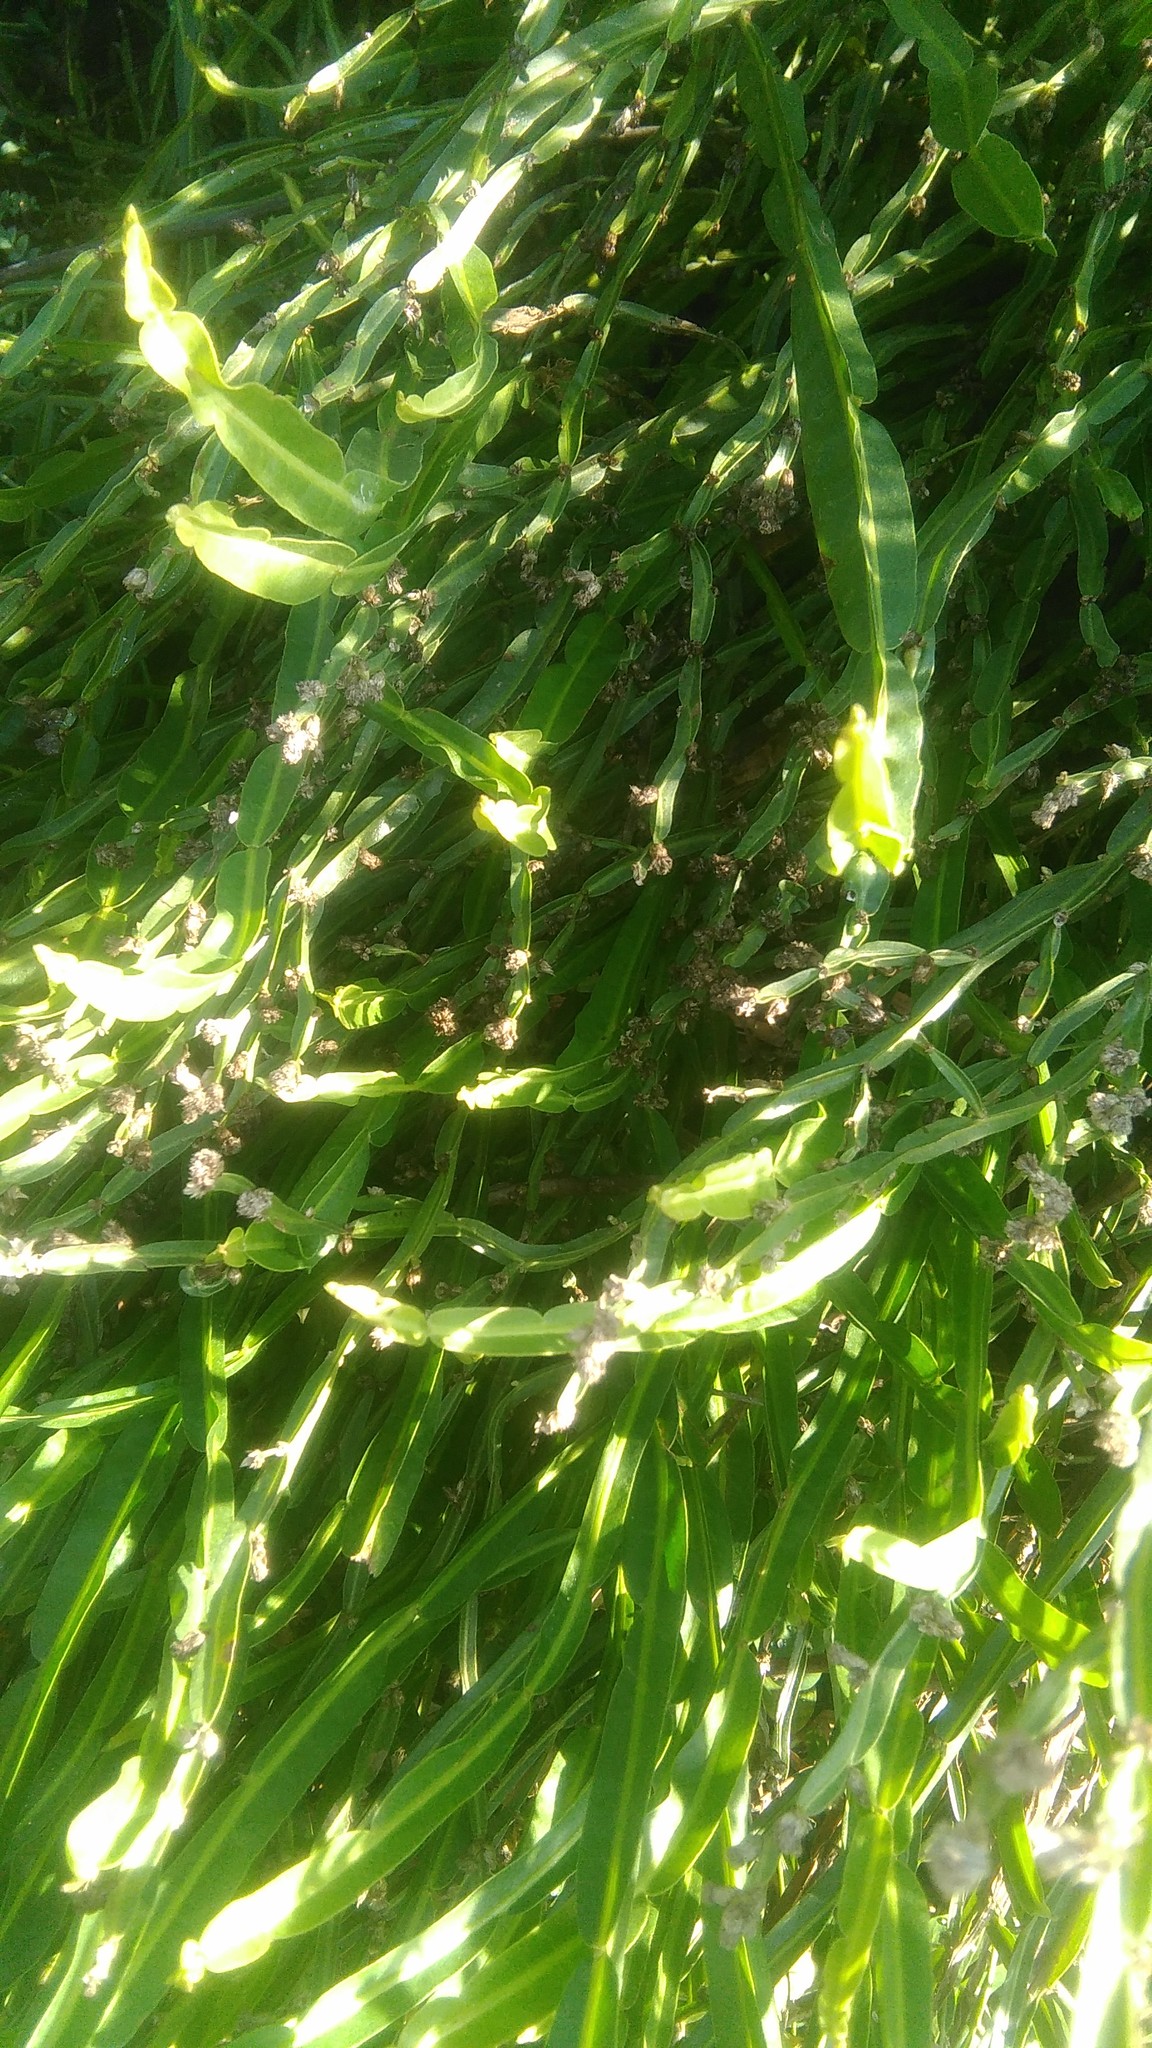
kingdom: Plantae
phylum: Tracheophyta
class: Magnoliopsida
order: Asterales
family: Asteraceae
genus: Baccharis
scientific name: Baccharis trimera
